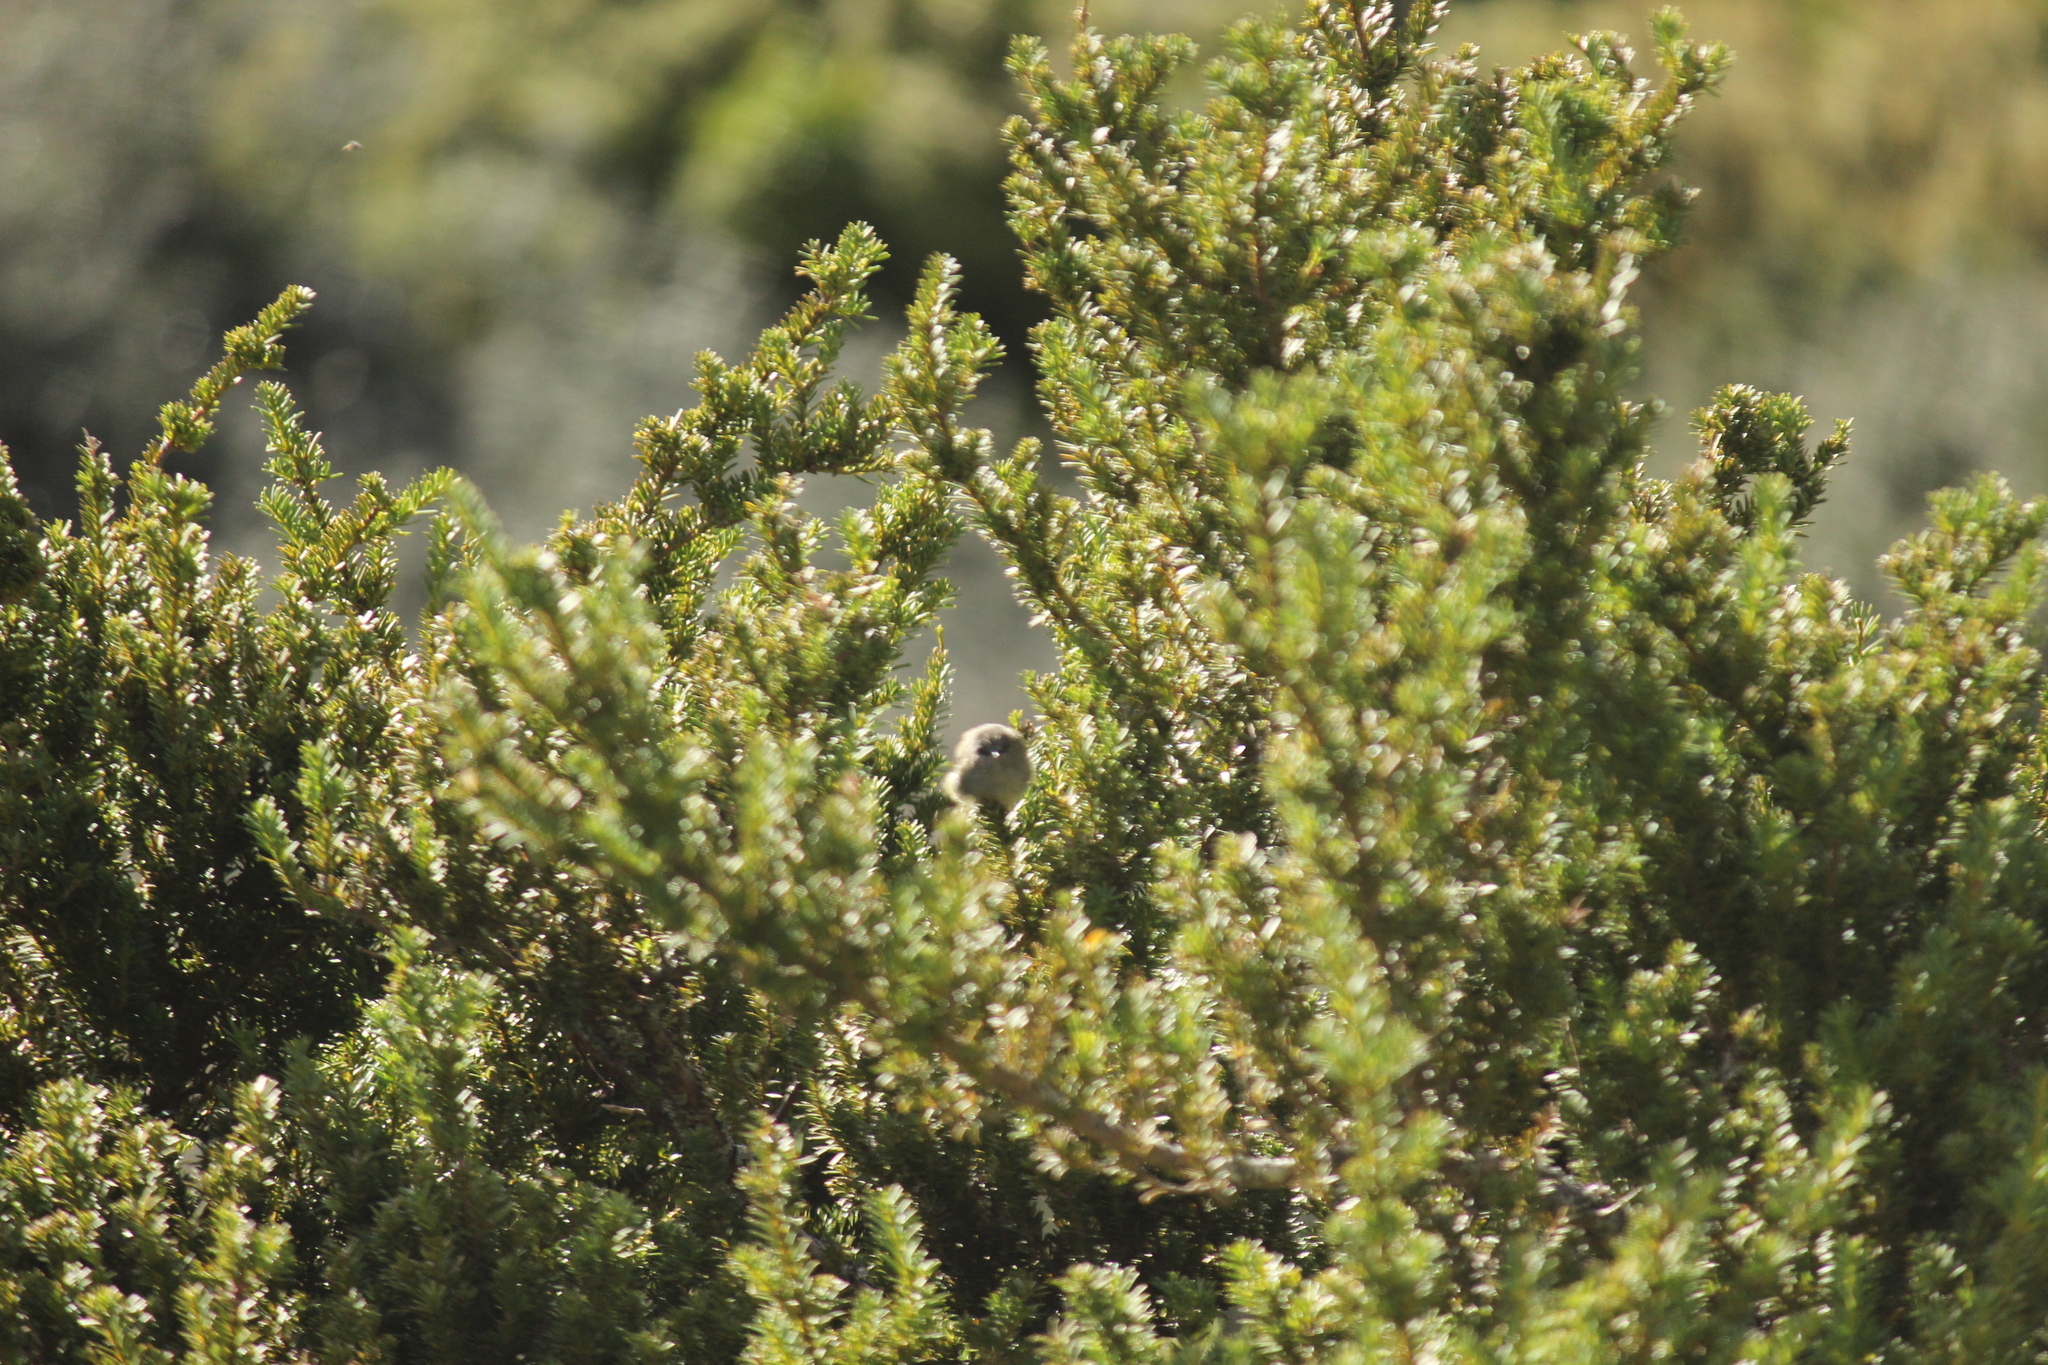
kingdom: Animalia
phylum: Chordata
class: Aves
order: Passeriformes
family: Acanthizidae
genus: Gerygone
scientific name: Gerygone igata
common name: Grey gerygone
